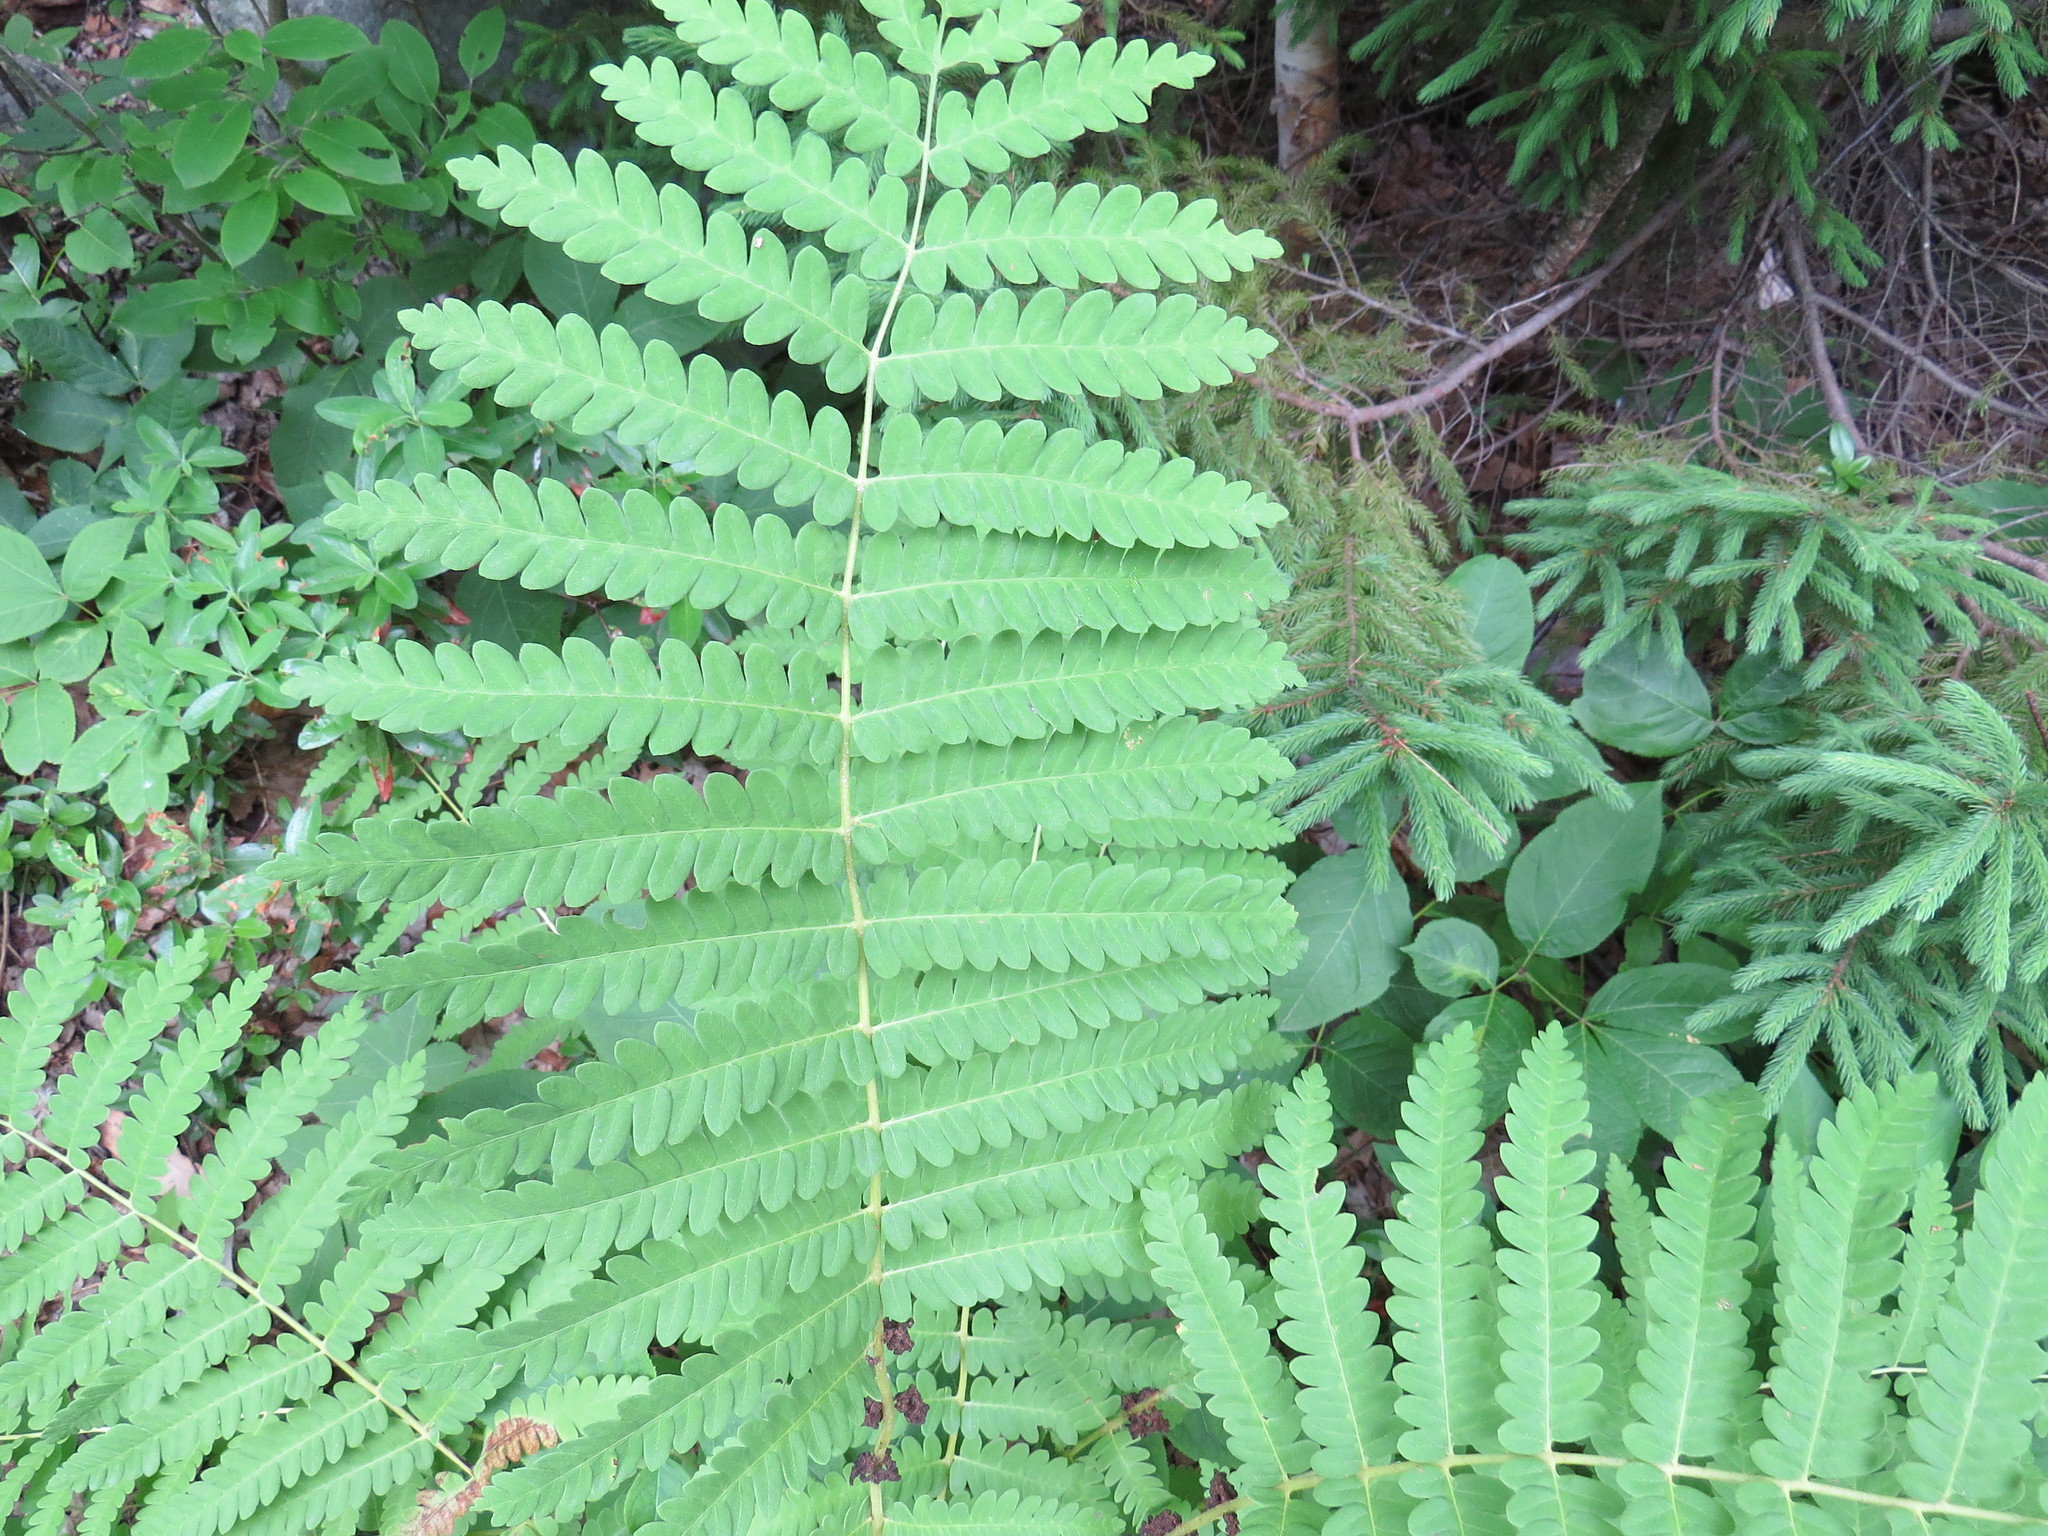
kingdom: Plantae
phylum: Tracheophyta
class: Polypodiopsida
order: Osmundales
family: Osmundaceae
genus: Claytosmunda
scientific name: Claytosmunda claytoniana
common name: Clayton's fern
